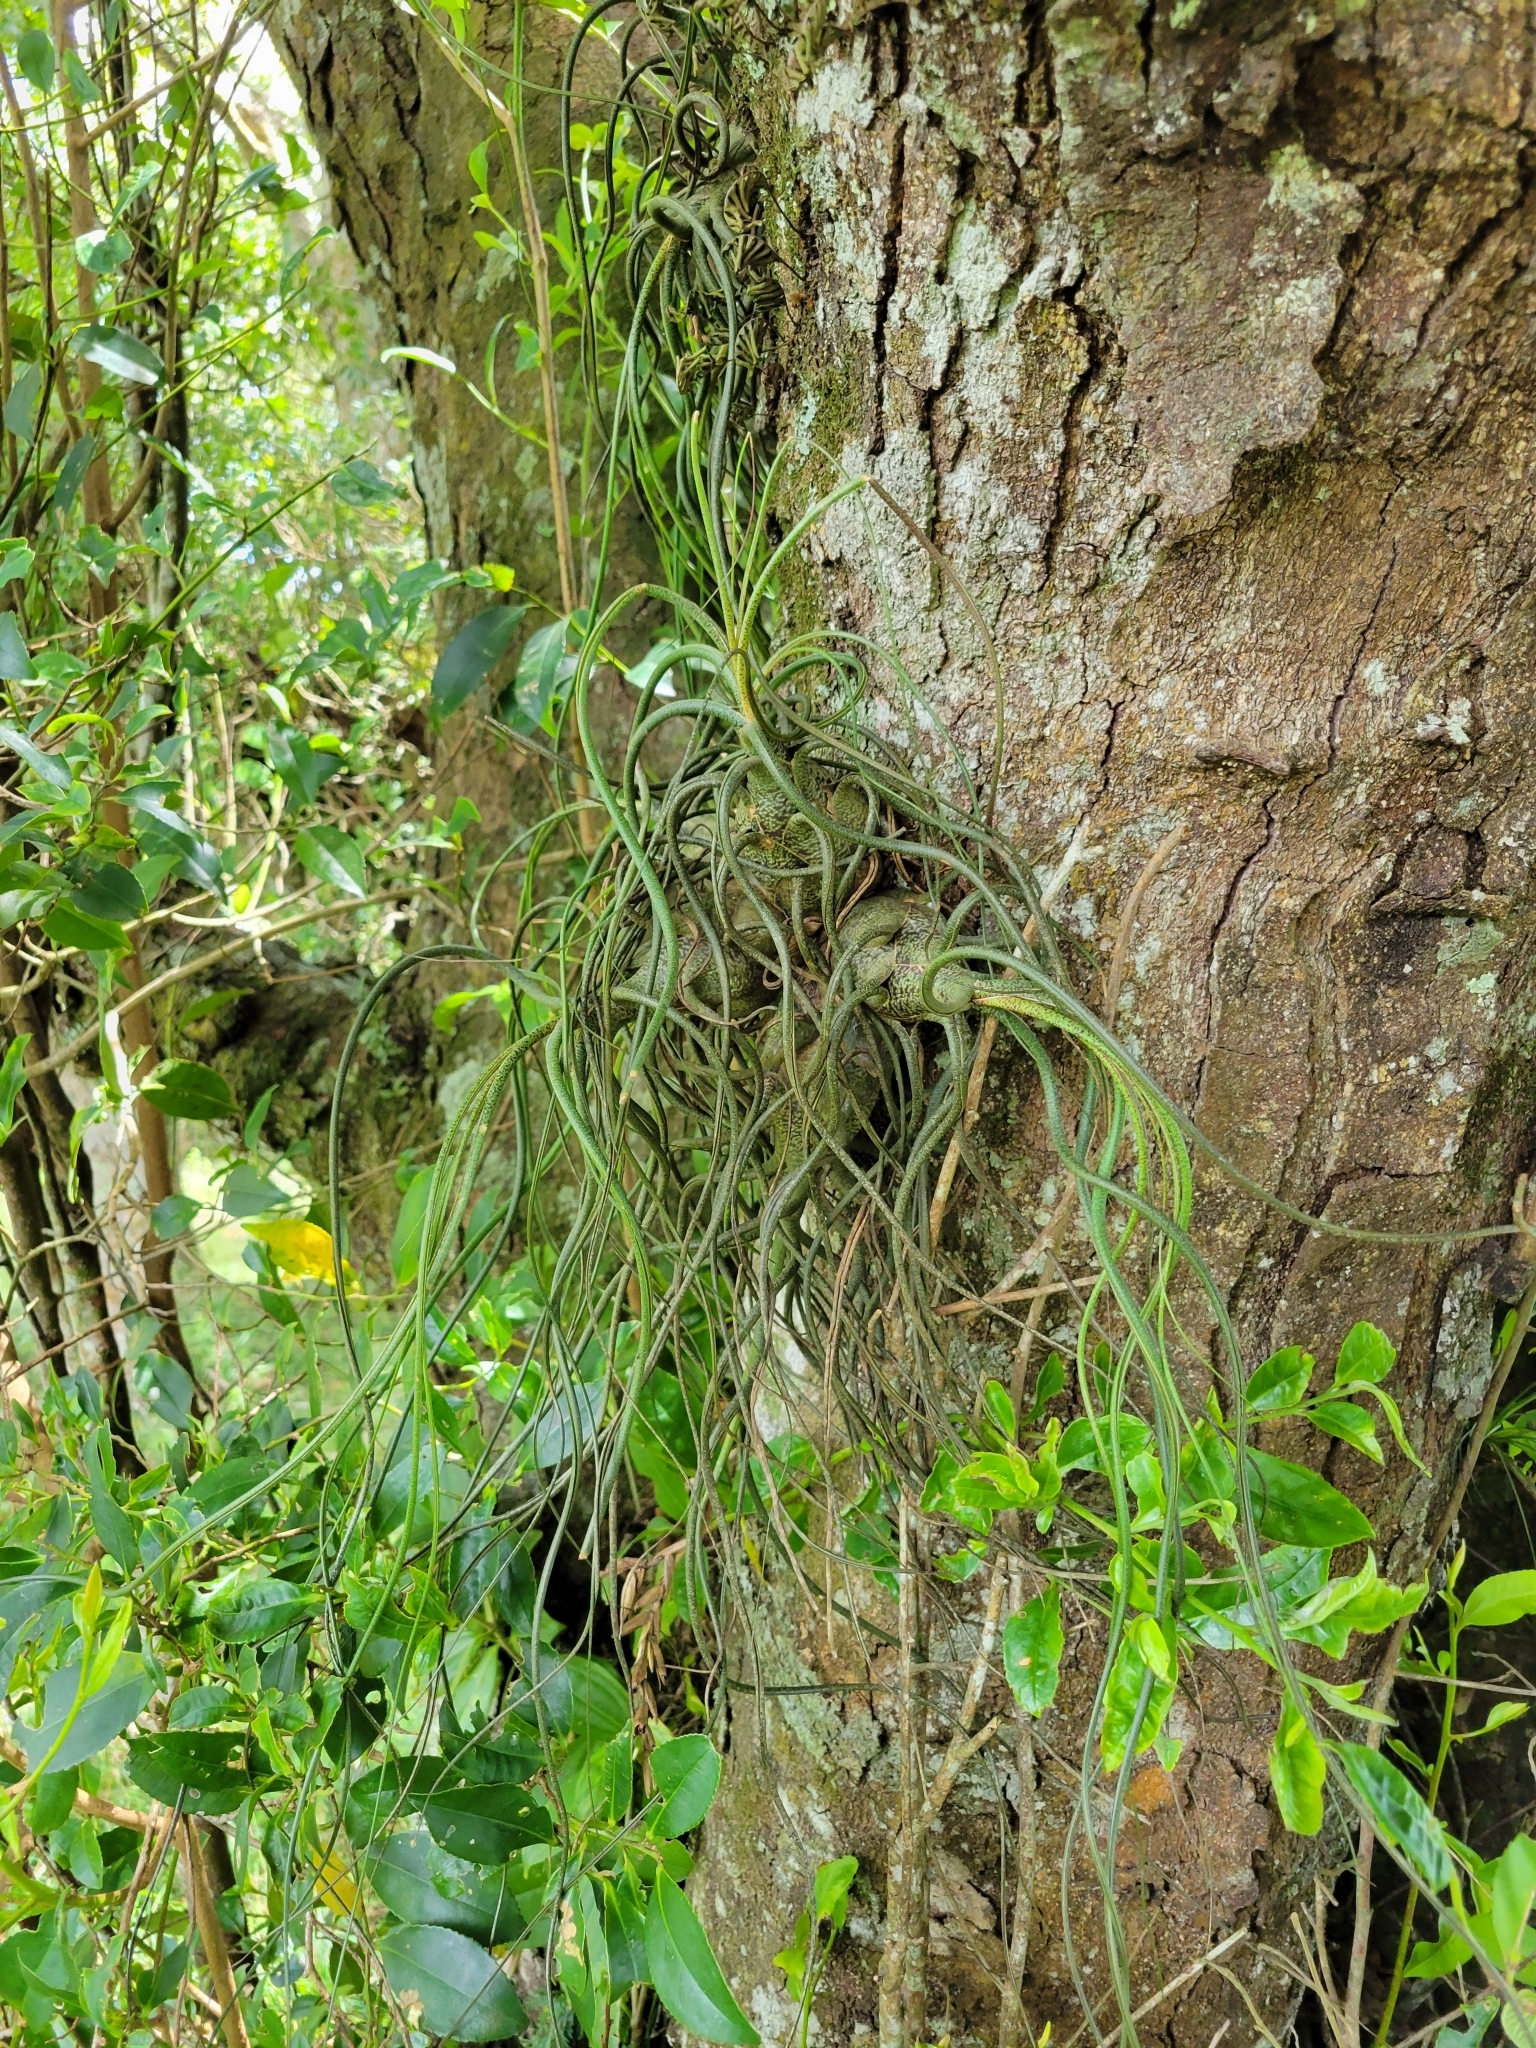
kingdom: Plantae
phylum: Tracheophyta
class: Liliopsida
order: Poales
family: Bromeliaceae
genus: Tillandsia
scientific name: Tillandsia butzii
